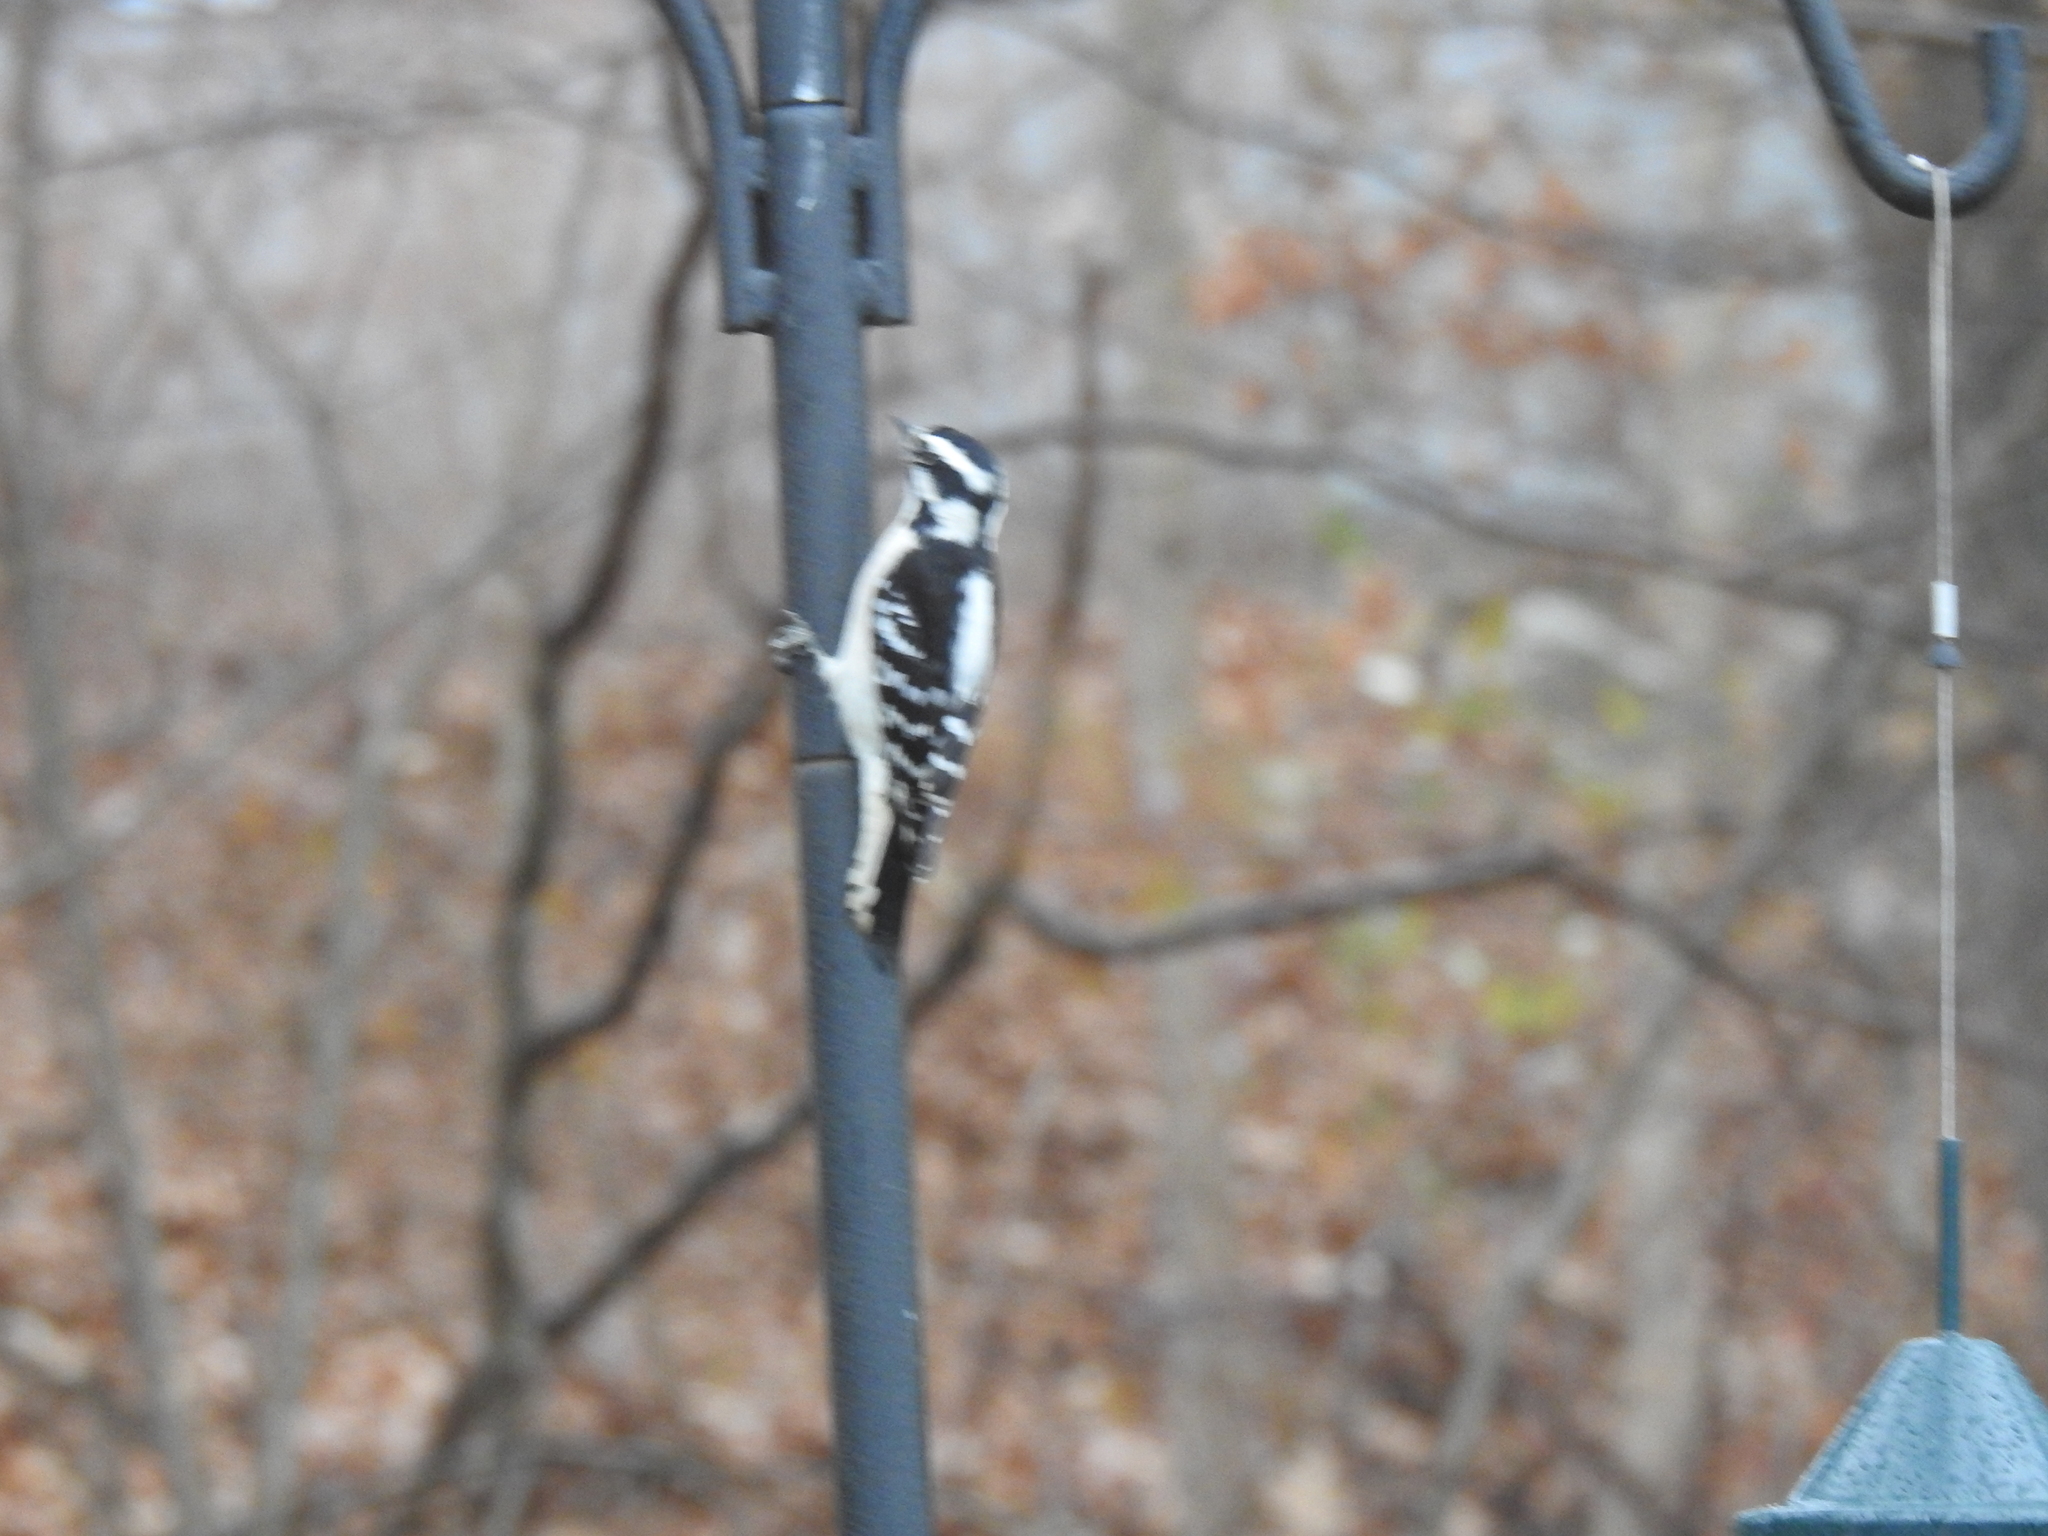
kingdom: Animalia
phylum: Chordata
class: Aves
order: Piciformes
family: Picidae
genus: Dryobates
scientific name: Dryobates pubescens
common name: Downy woodpecker
